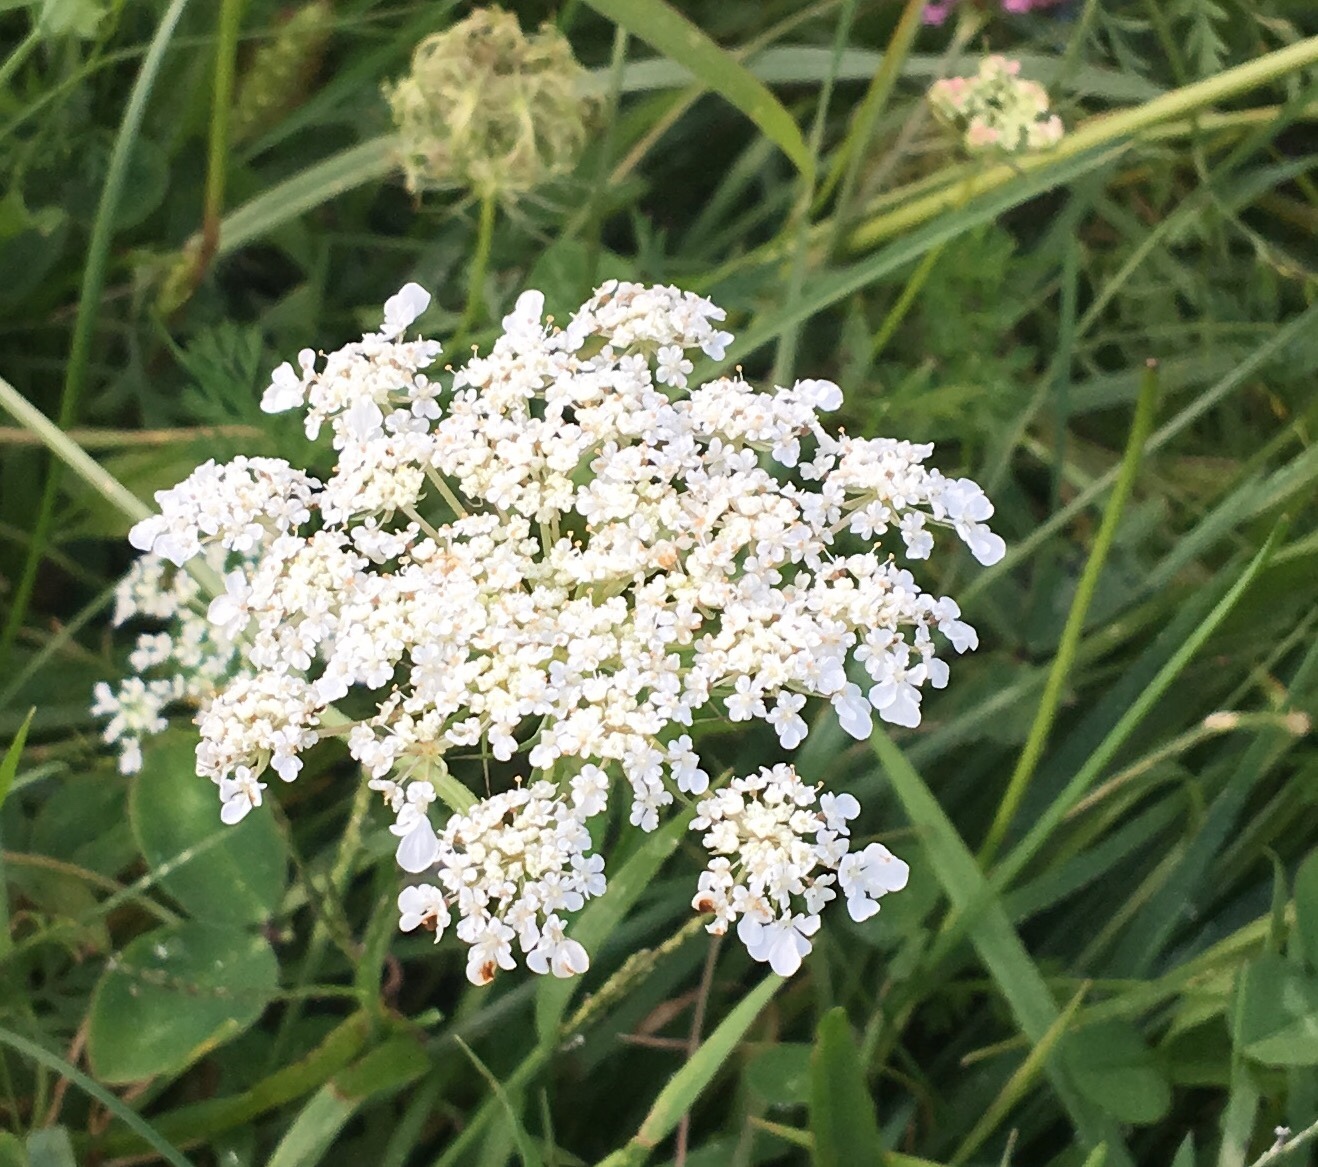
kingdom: Plantae
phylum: Tracheophyta
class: Magnoliopsida
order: Apiales
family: Apiaceae
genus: Daucus
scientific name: Daucus carota
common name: Wild carrot
